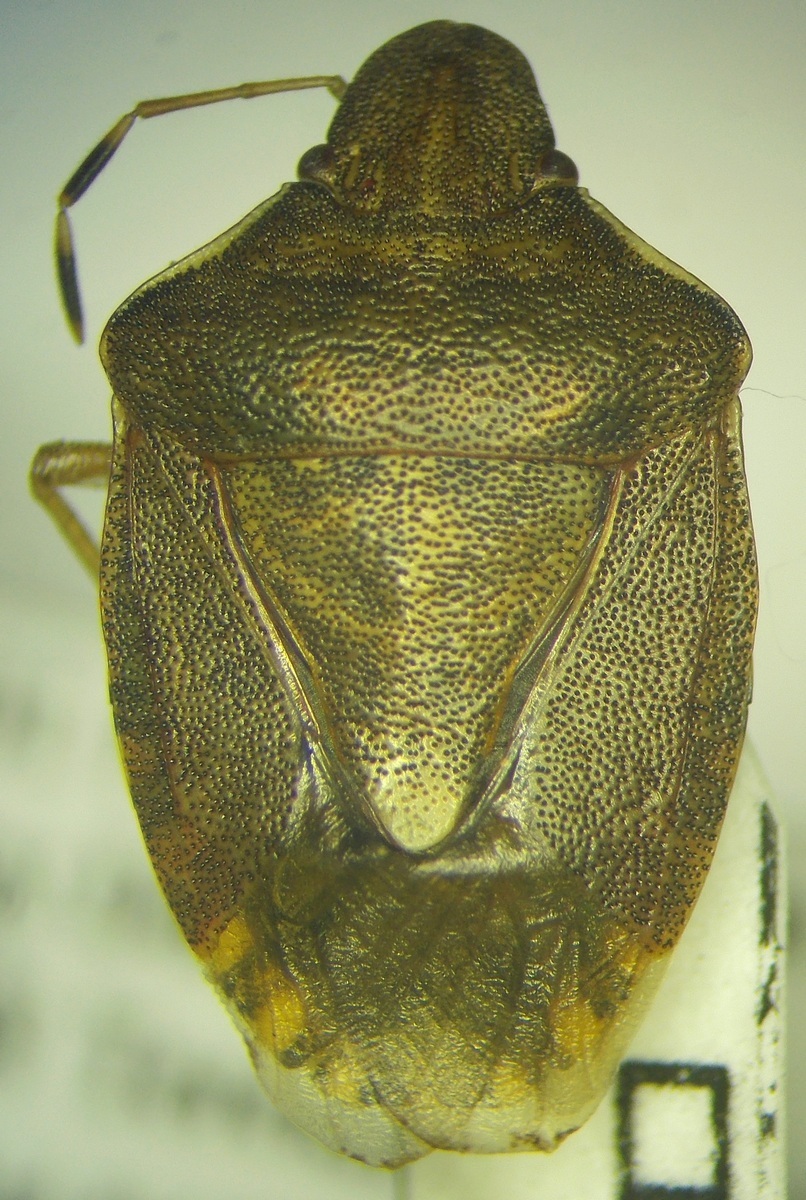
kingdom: Animalia
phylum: Arthropoda
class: Insecta
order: Hemiptera
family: Pentatomidae
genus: Holcostethus
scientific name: Holcostethus strictus
